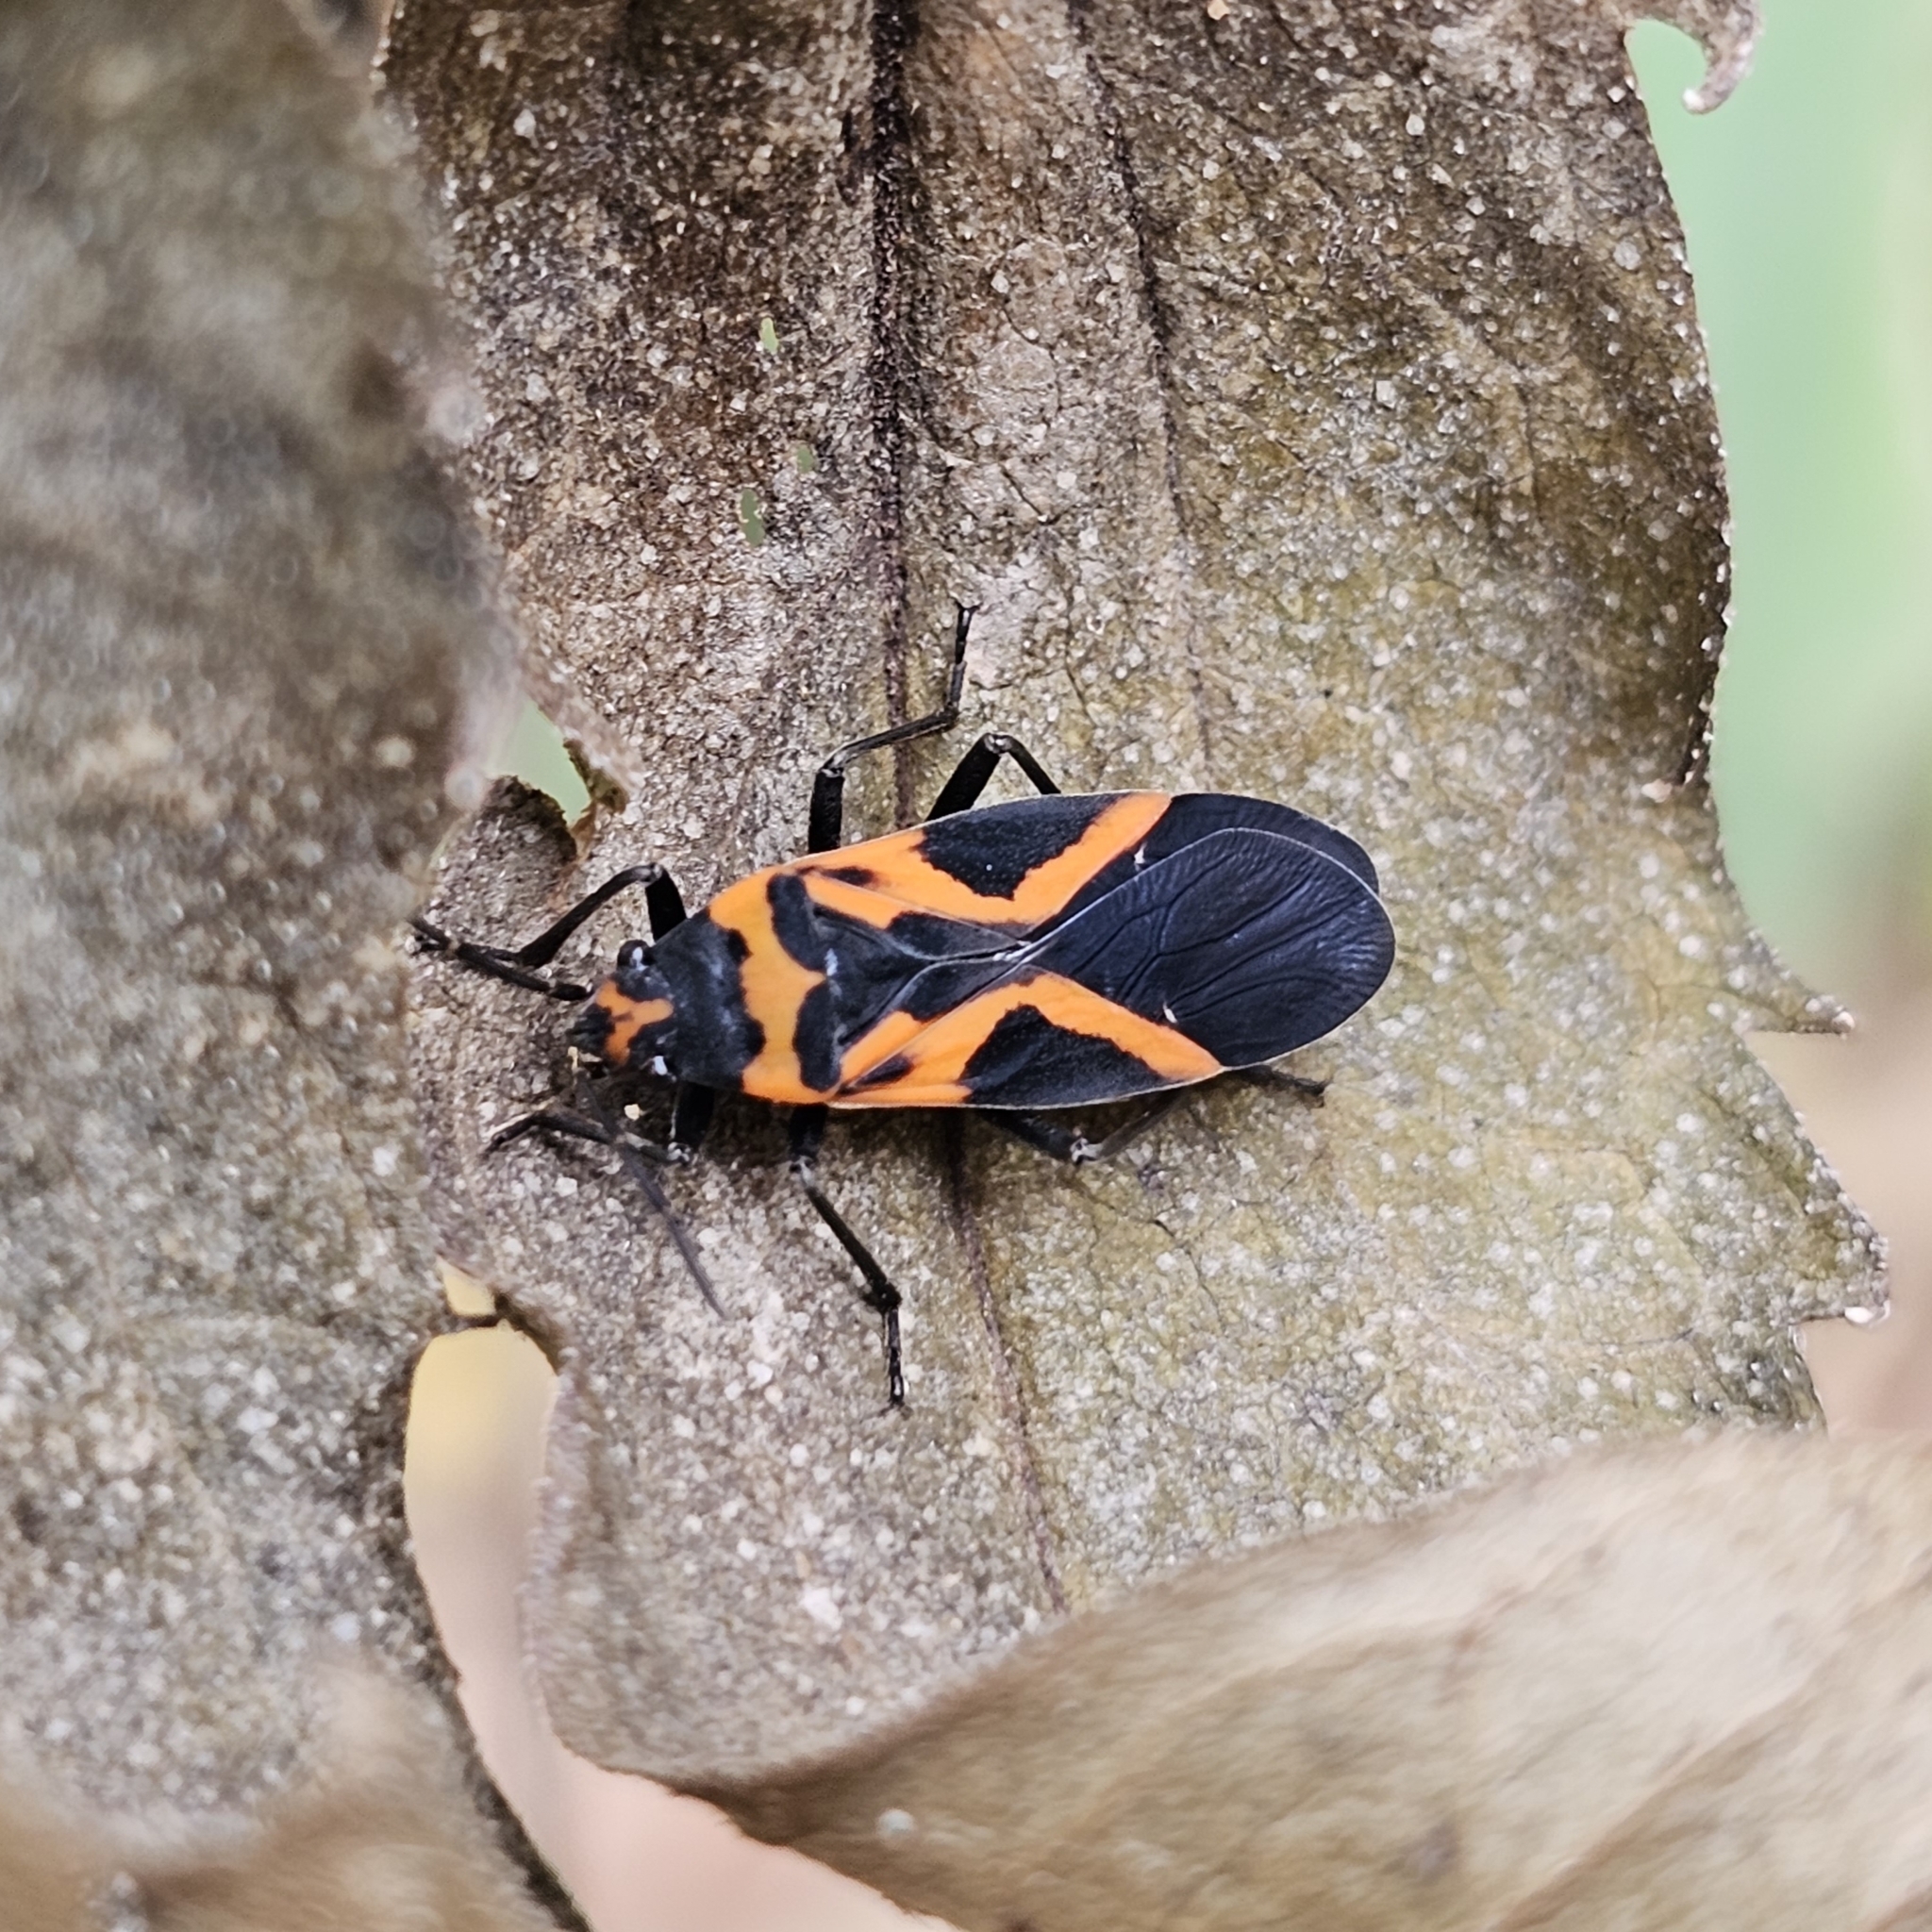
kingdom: Animalia
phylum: Arthropoda
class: Insecta
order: Hemiptera
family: Lygaeidae
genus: Lygaeus
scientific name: Lygaeus turcicus
